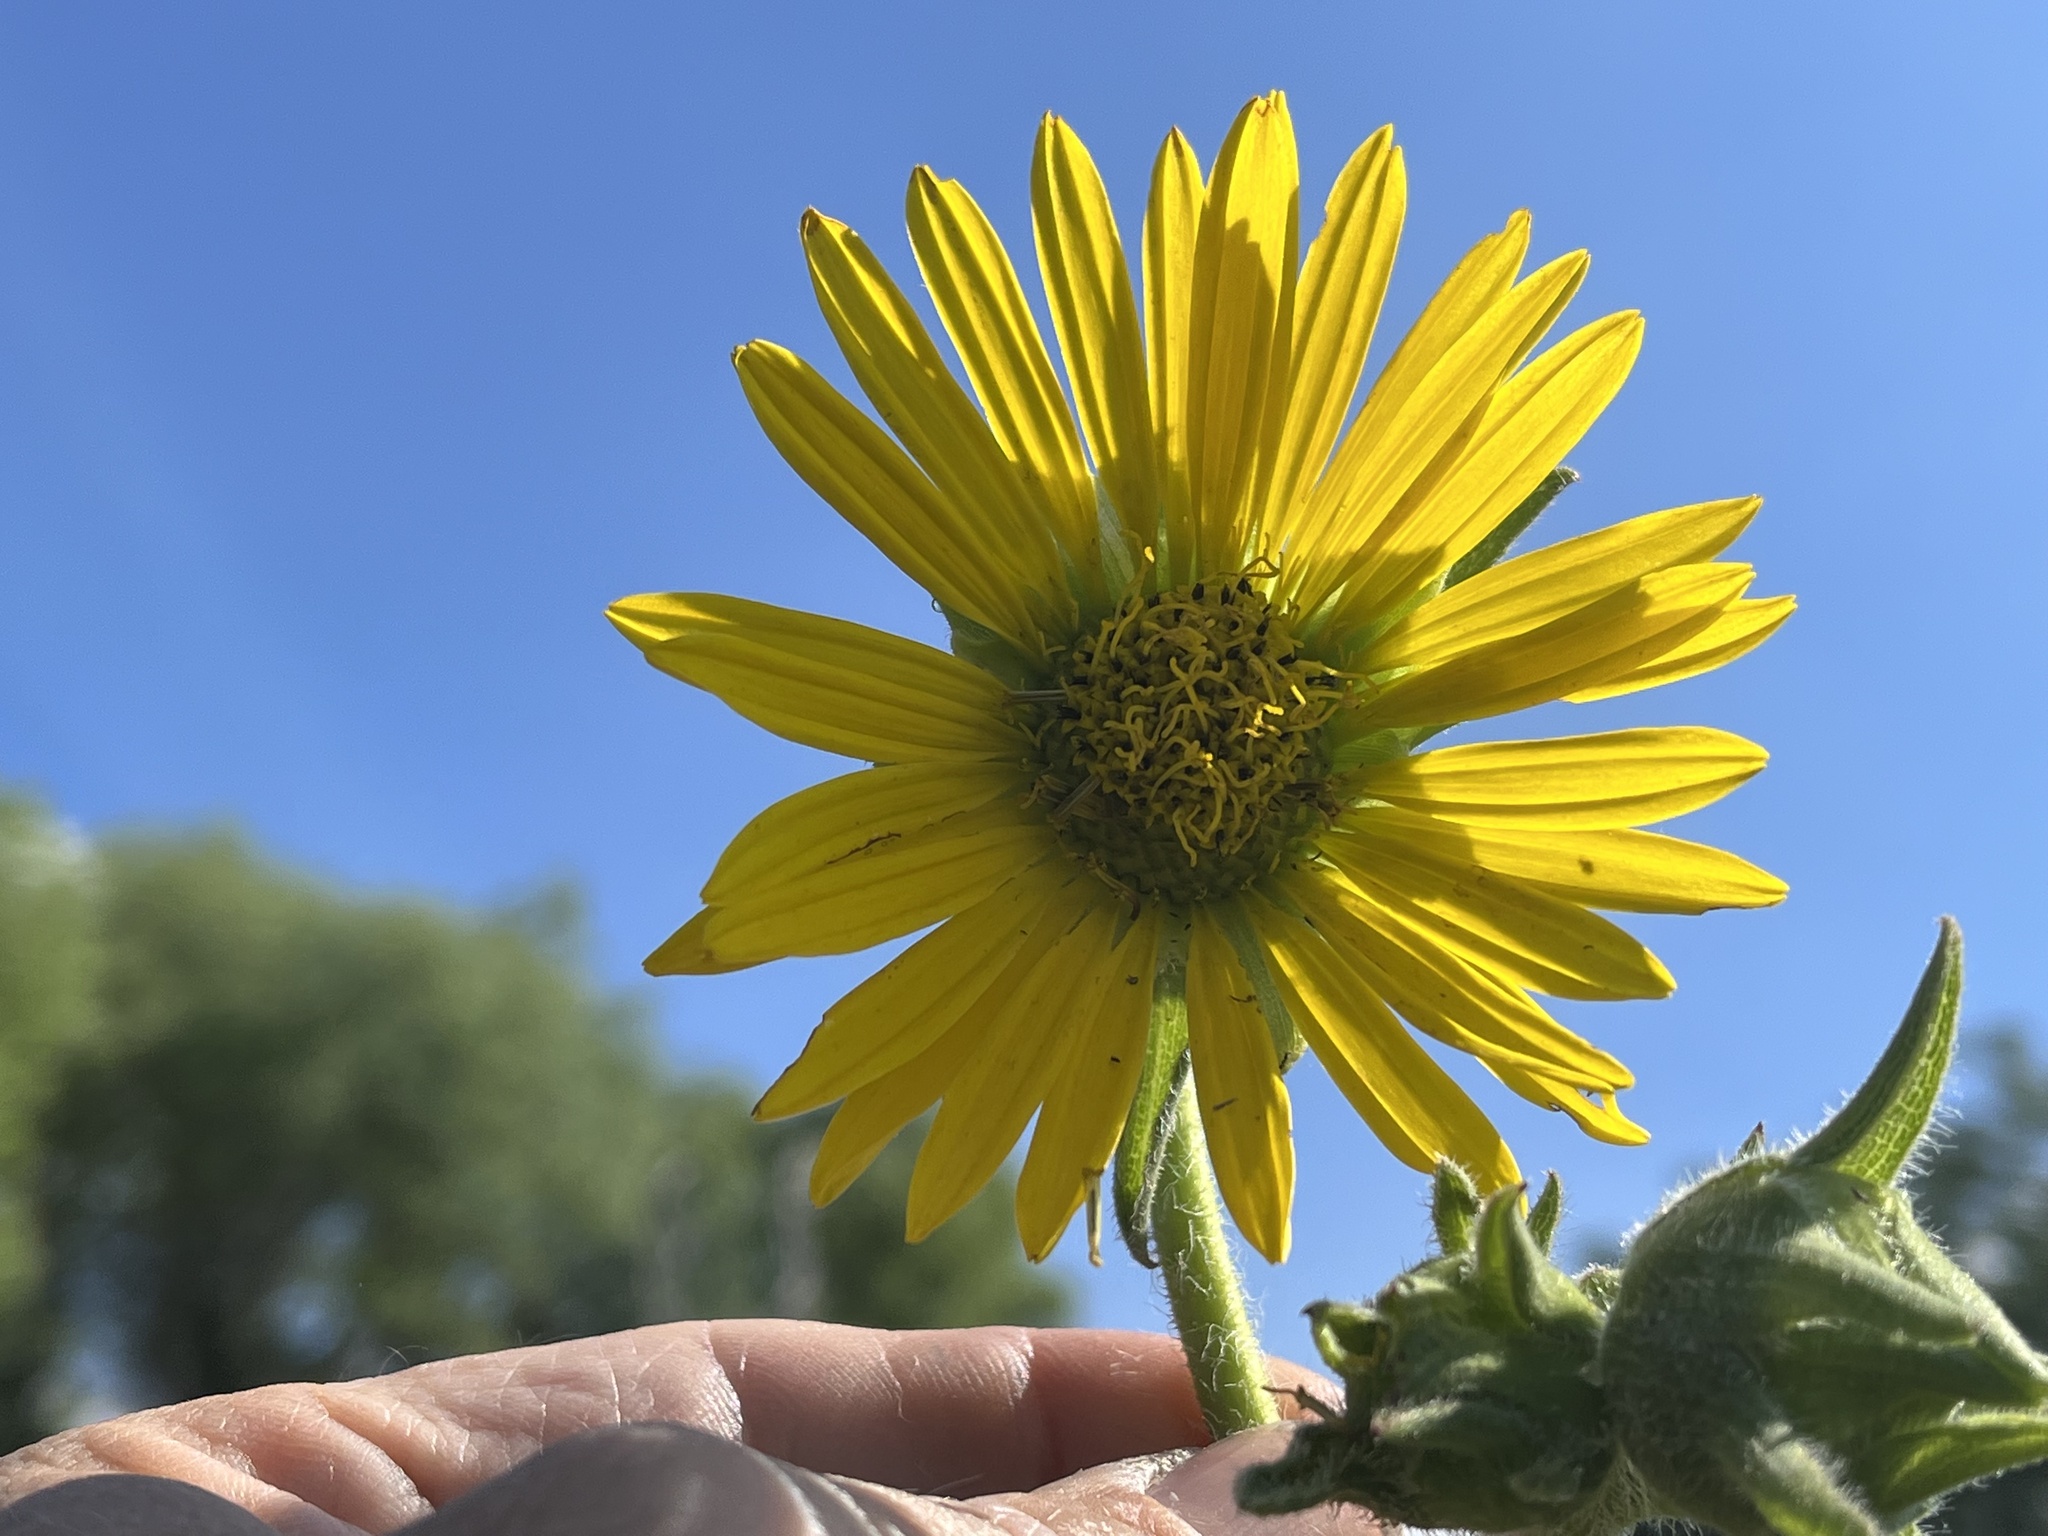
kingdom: Plantae
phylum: Tracheophyta
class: Magnoliopsida
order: Asterales
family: Asteraceae
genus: Silphium
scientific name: Silphium laciniatum
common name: Polarplant
